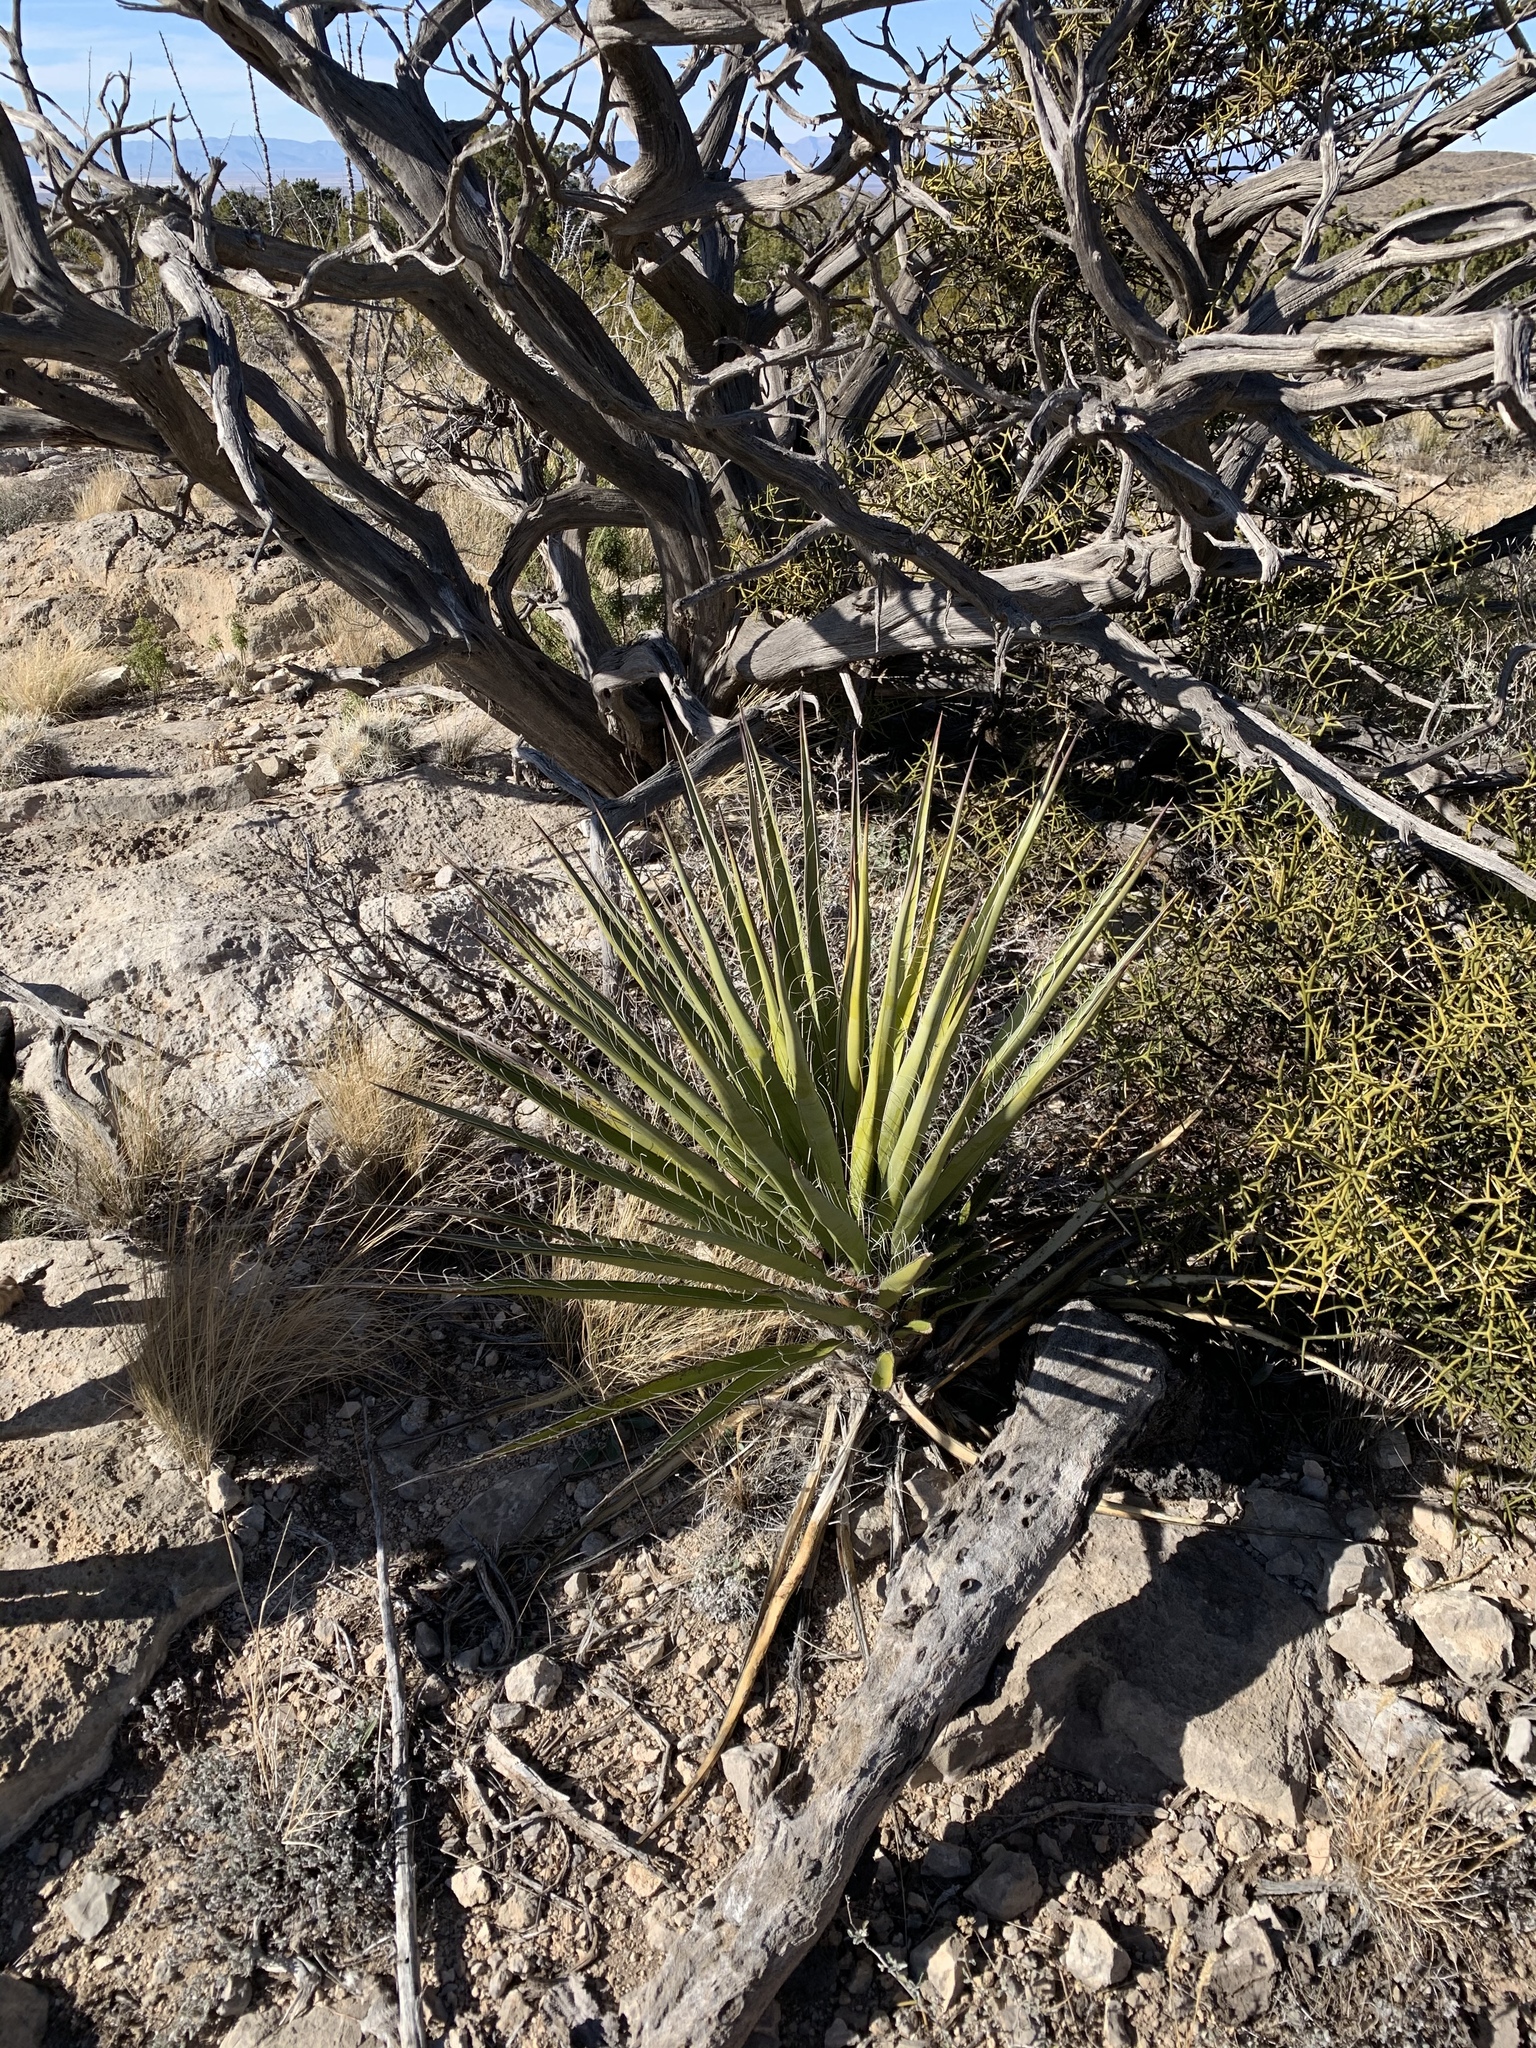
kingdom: Plantae
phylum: Tracheophyta
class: Liliopsida
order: Asparagales
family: Asparagaceae
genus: Yucca
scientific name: Yucca treculiana
